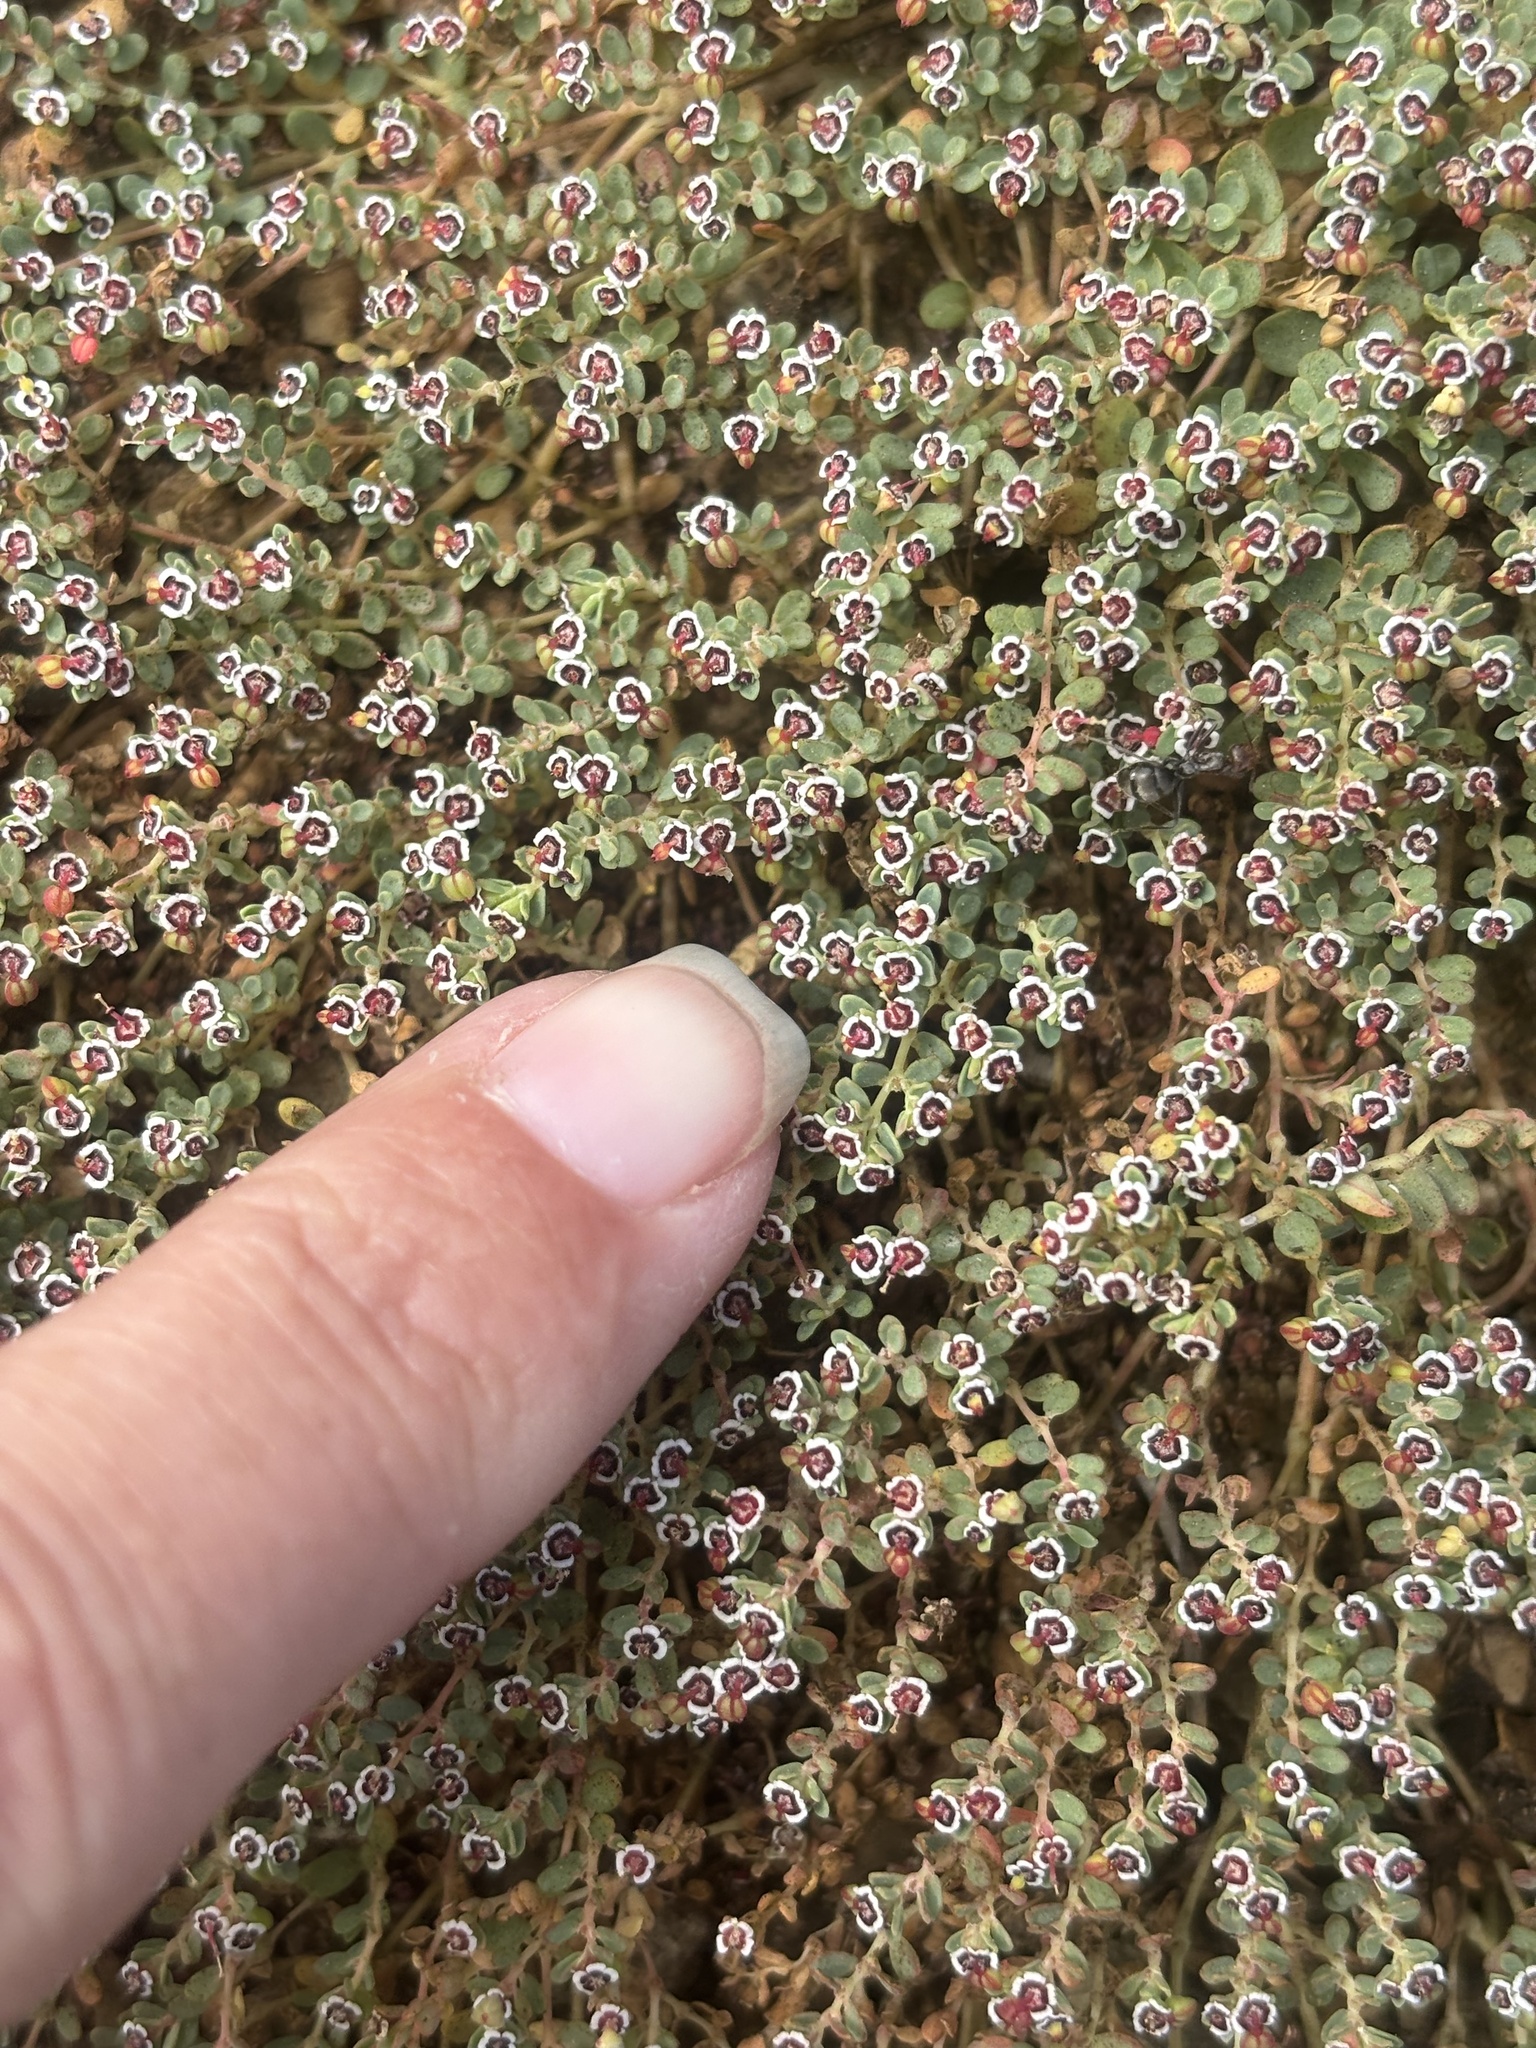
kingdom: Plantae
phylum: Tracheophyta
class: Magnoliopsida
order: Malpighiales
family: Euphorbiaceae
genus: Euphorbia
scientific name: Euphorbia polycarpa
